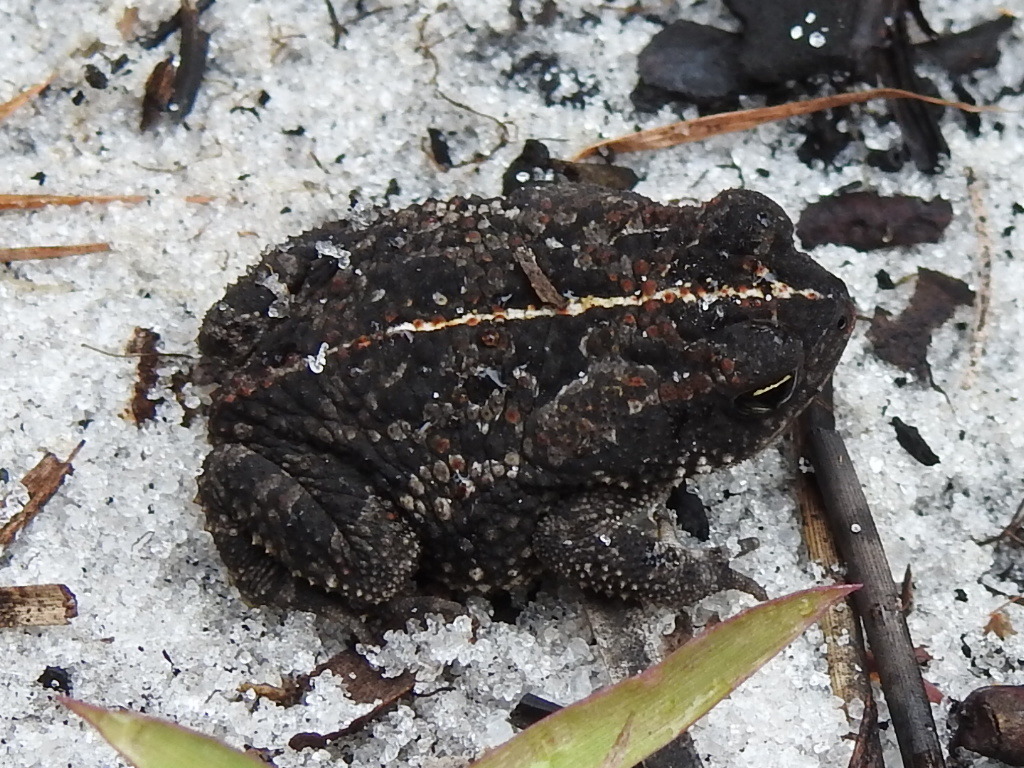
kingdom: Animalia
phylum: Chordata
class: Amphibia
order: Anura
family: Bufonidae
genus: Anaxyrus
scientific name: Anaxyrus quercicus
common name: Oak toad
